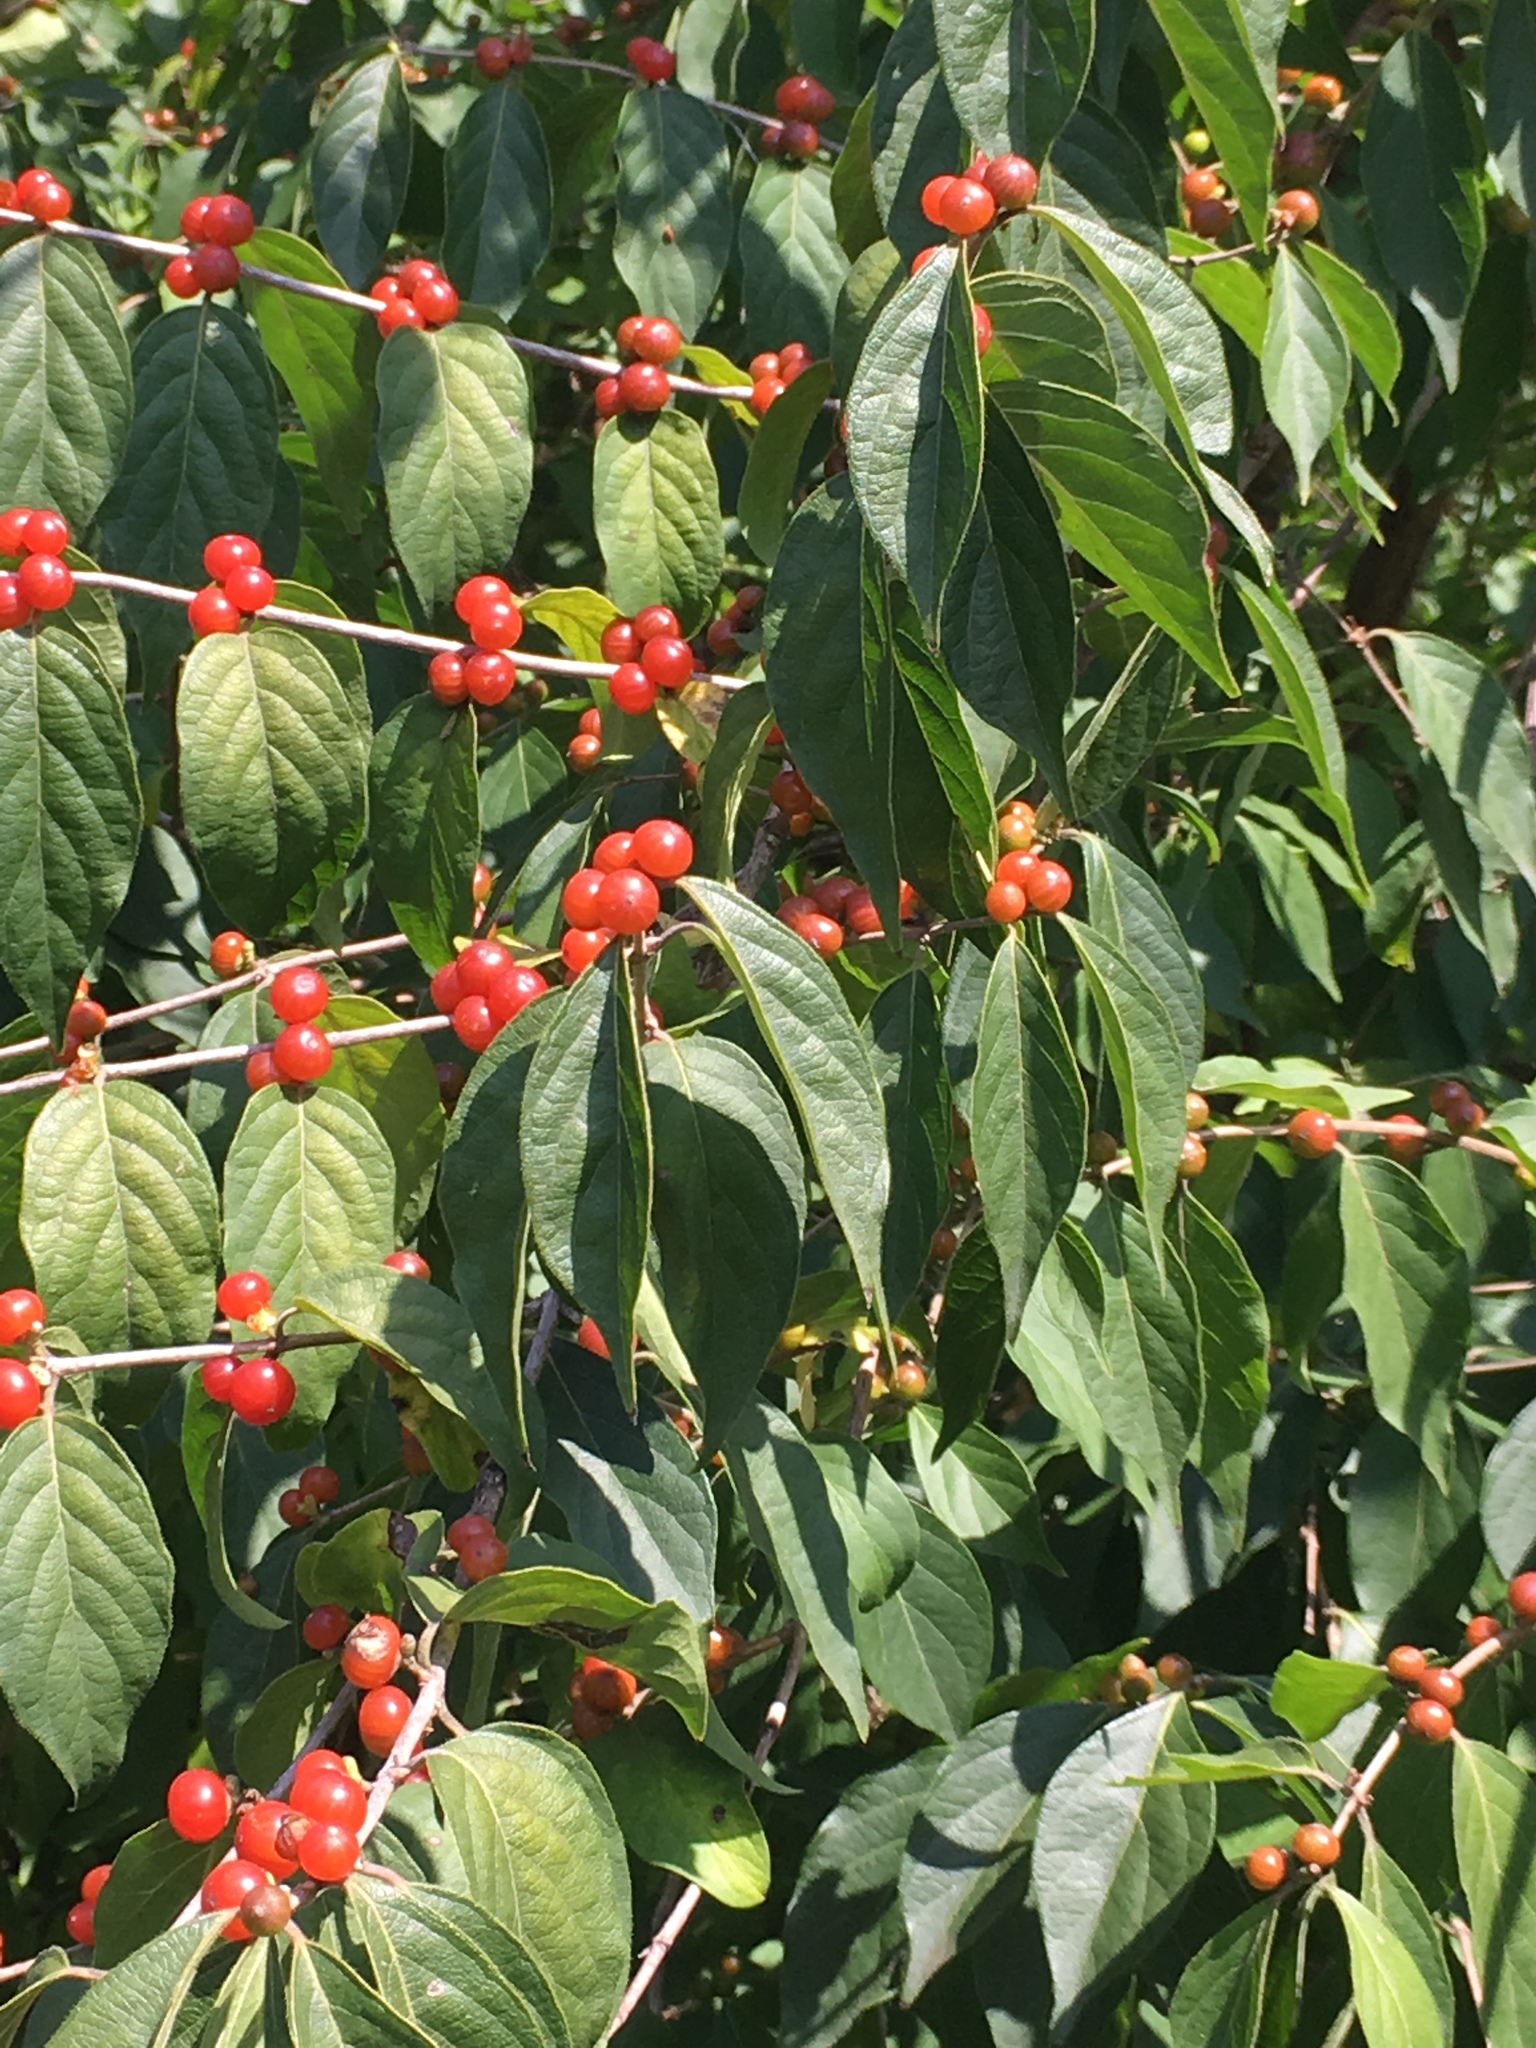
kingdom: Plantae
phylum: Tracheophyta
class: Magnoliopsida
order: Dipsacales
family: Caprifoliaceae
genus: Lonicera
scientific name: Lonicera maackii
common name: Amur honeysuckle
